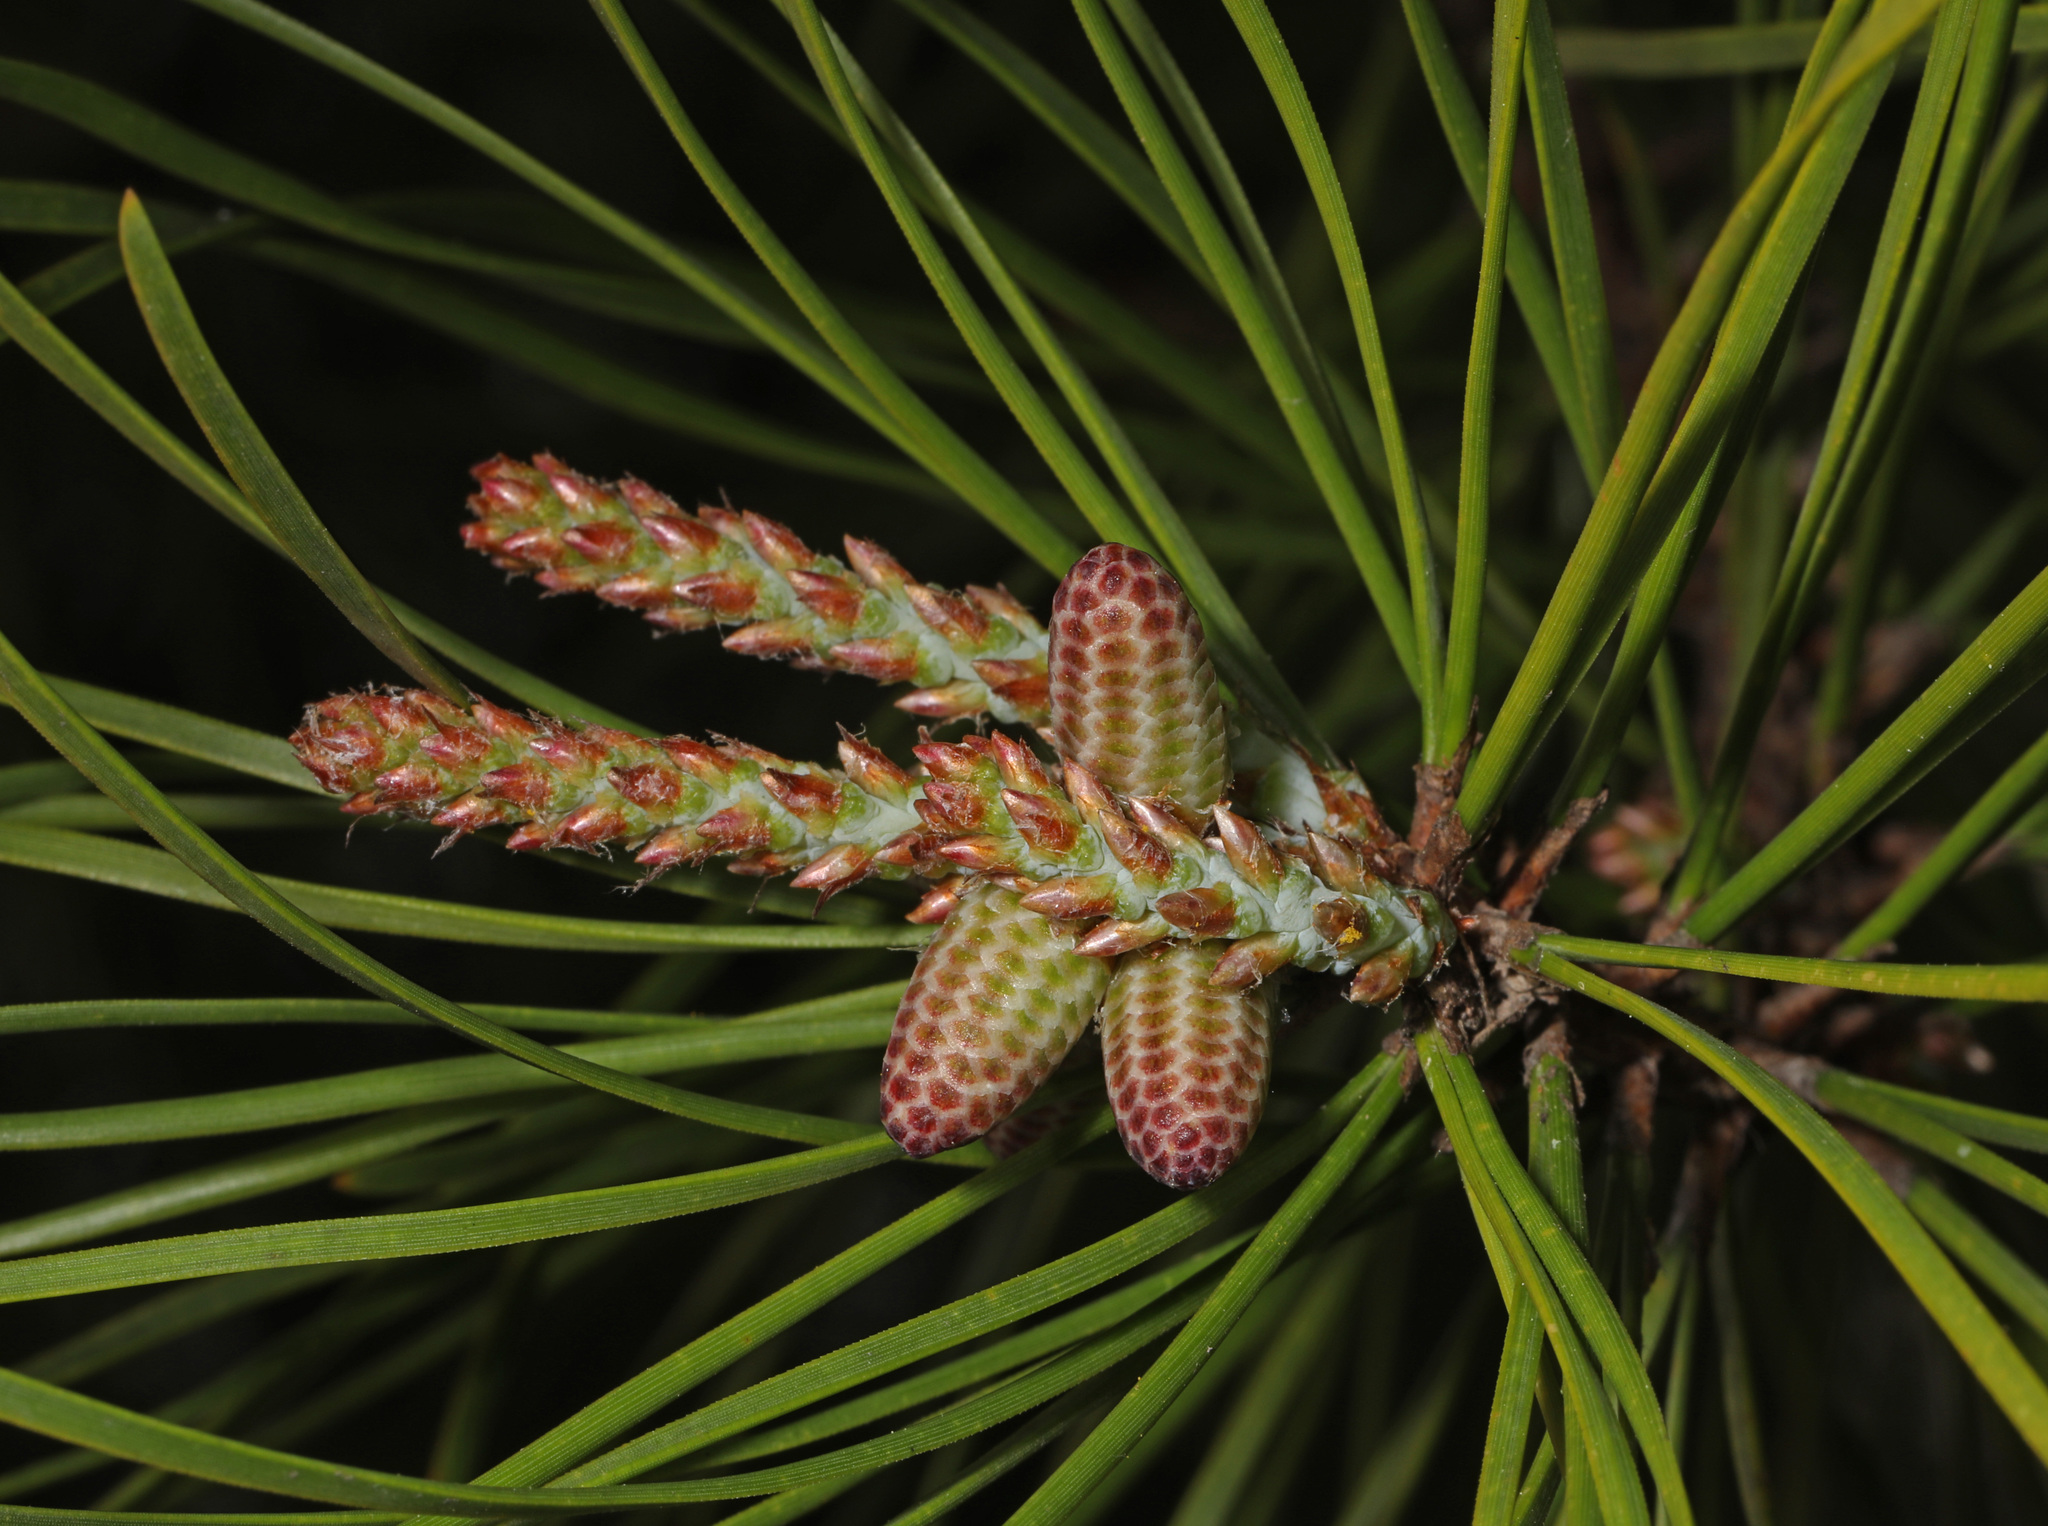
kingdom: Plantae
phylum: Tracheophyta
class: Pinopsida
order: Pinales
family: Pinaceae
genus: Pinus
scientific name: Pinus virginiana
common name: Scrub pine
